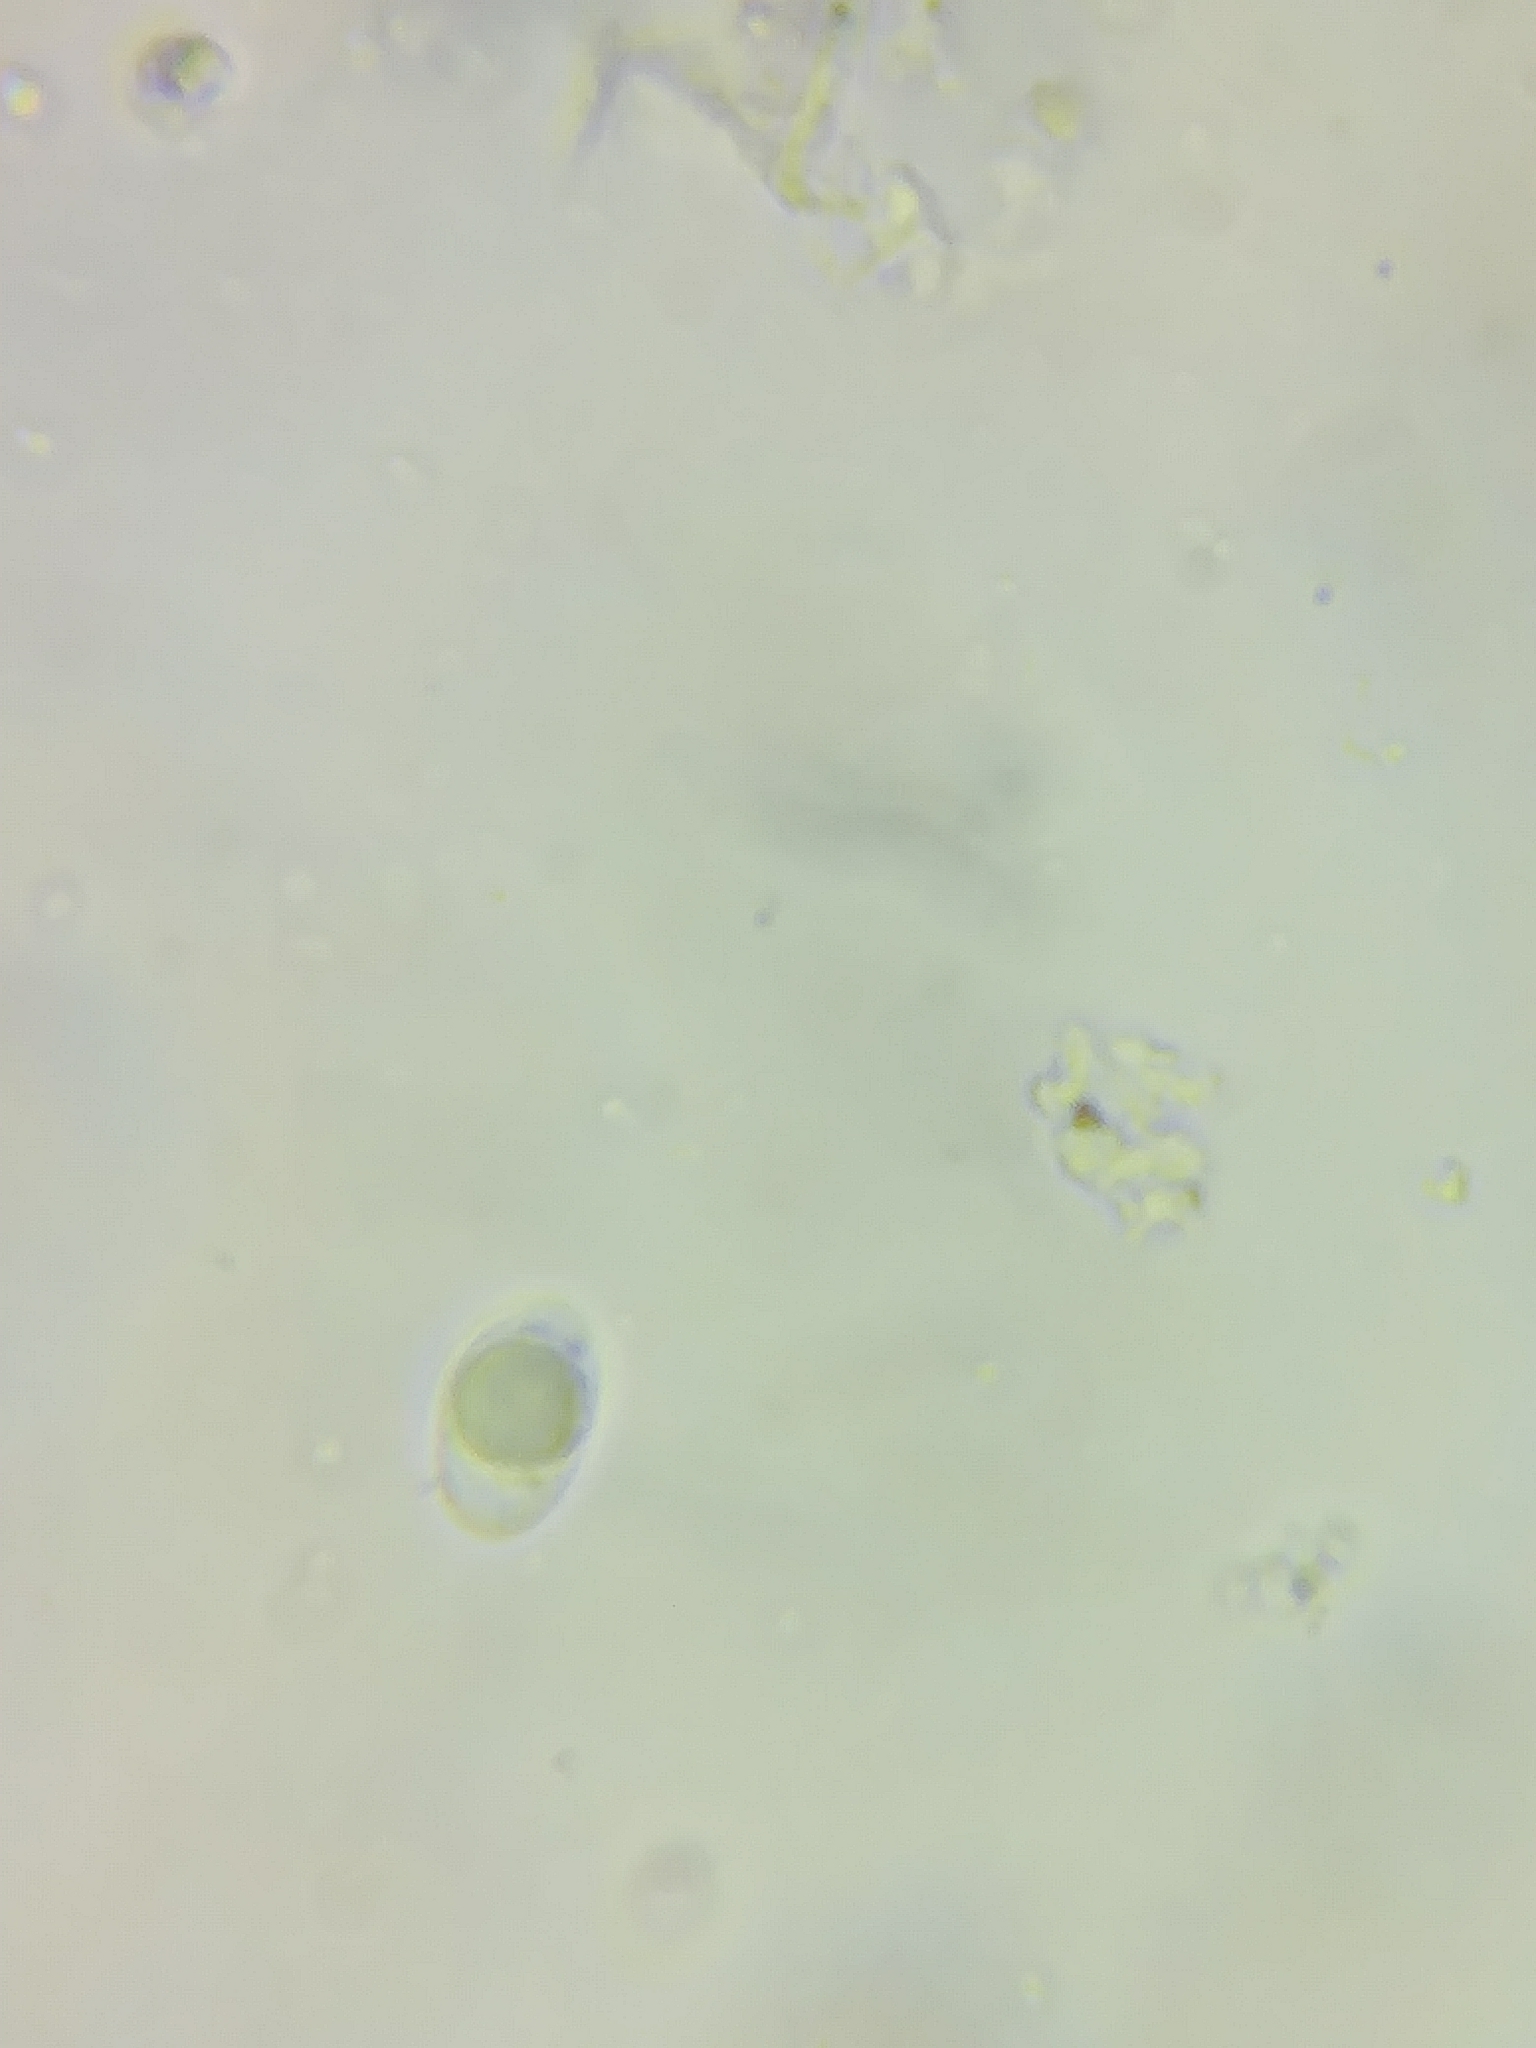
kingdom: Fungi
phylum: Basidiomycota
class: Agaricomycetes
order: Agaricales
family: Callistosporiaceae
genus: Pseudolaccaria
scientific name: Pseudolaccaria pachyphylla
